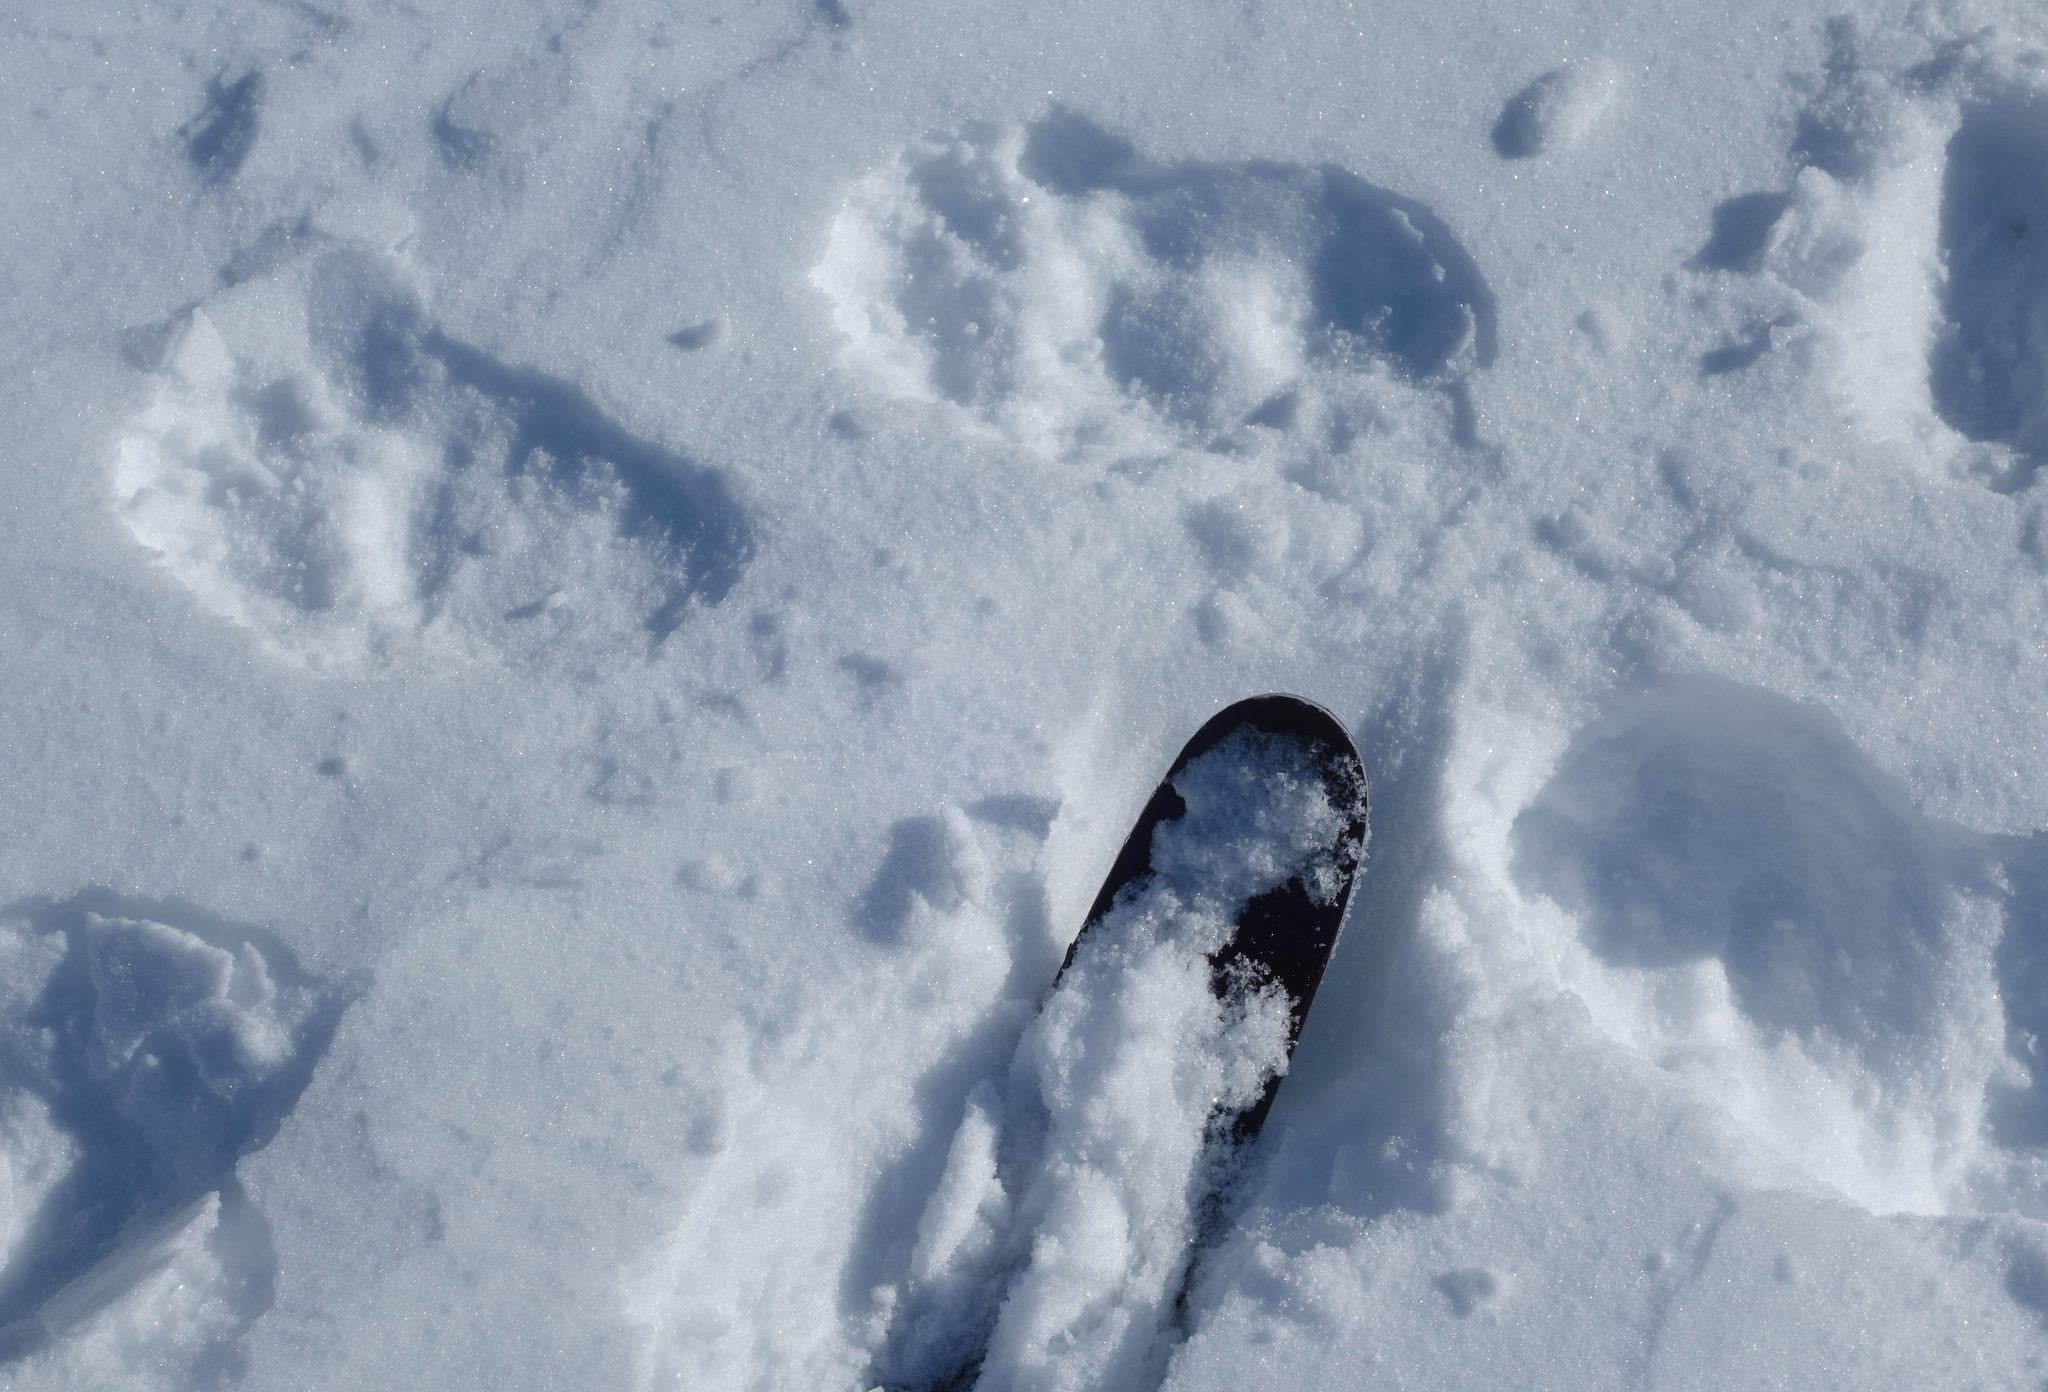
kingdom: Animalia
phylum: Chordata
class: Mammalia
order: Carnivora
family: Mustelidae
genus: Gulo
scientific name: Gulo gulo
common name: Wolverine
